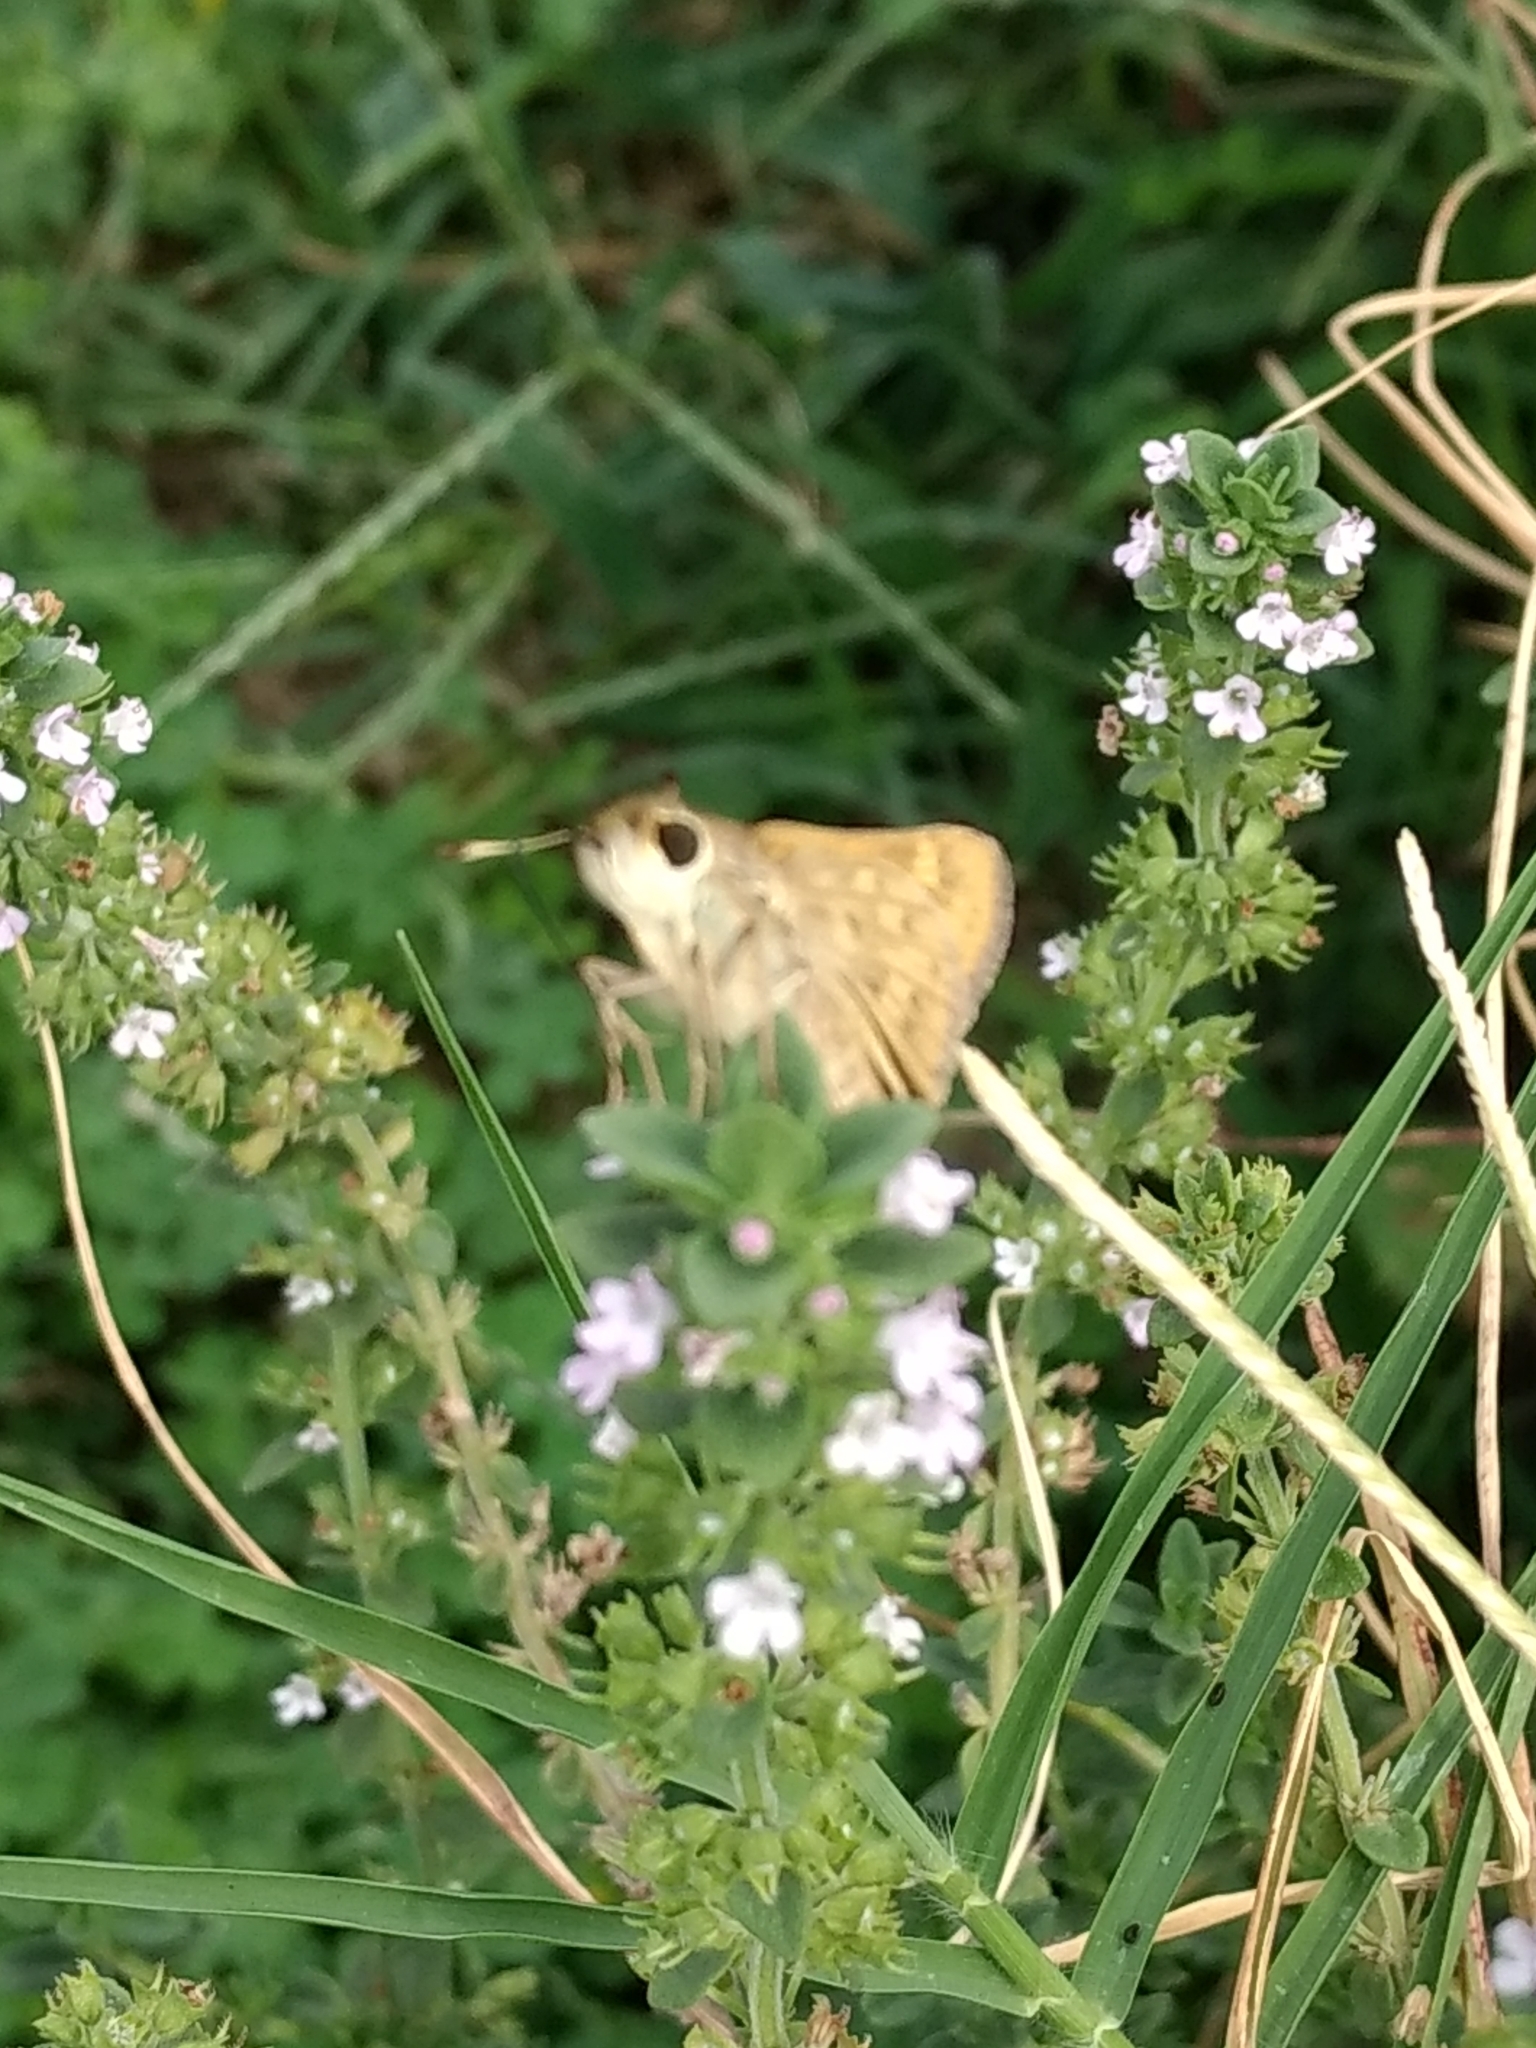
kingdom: Animalia
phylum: Arthropoda
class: Insecta
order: Lepidoptera
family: Hesperiidae
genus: Hylephila
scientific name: Hylephila phyleus
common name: Fiery skipper
